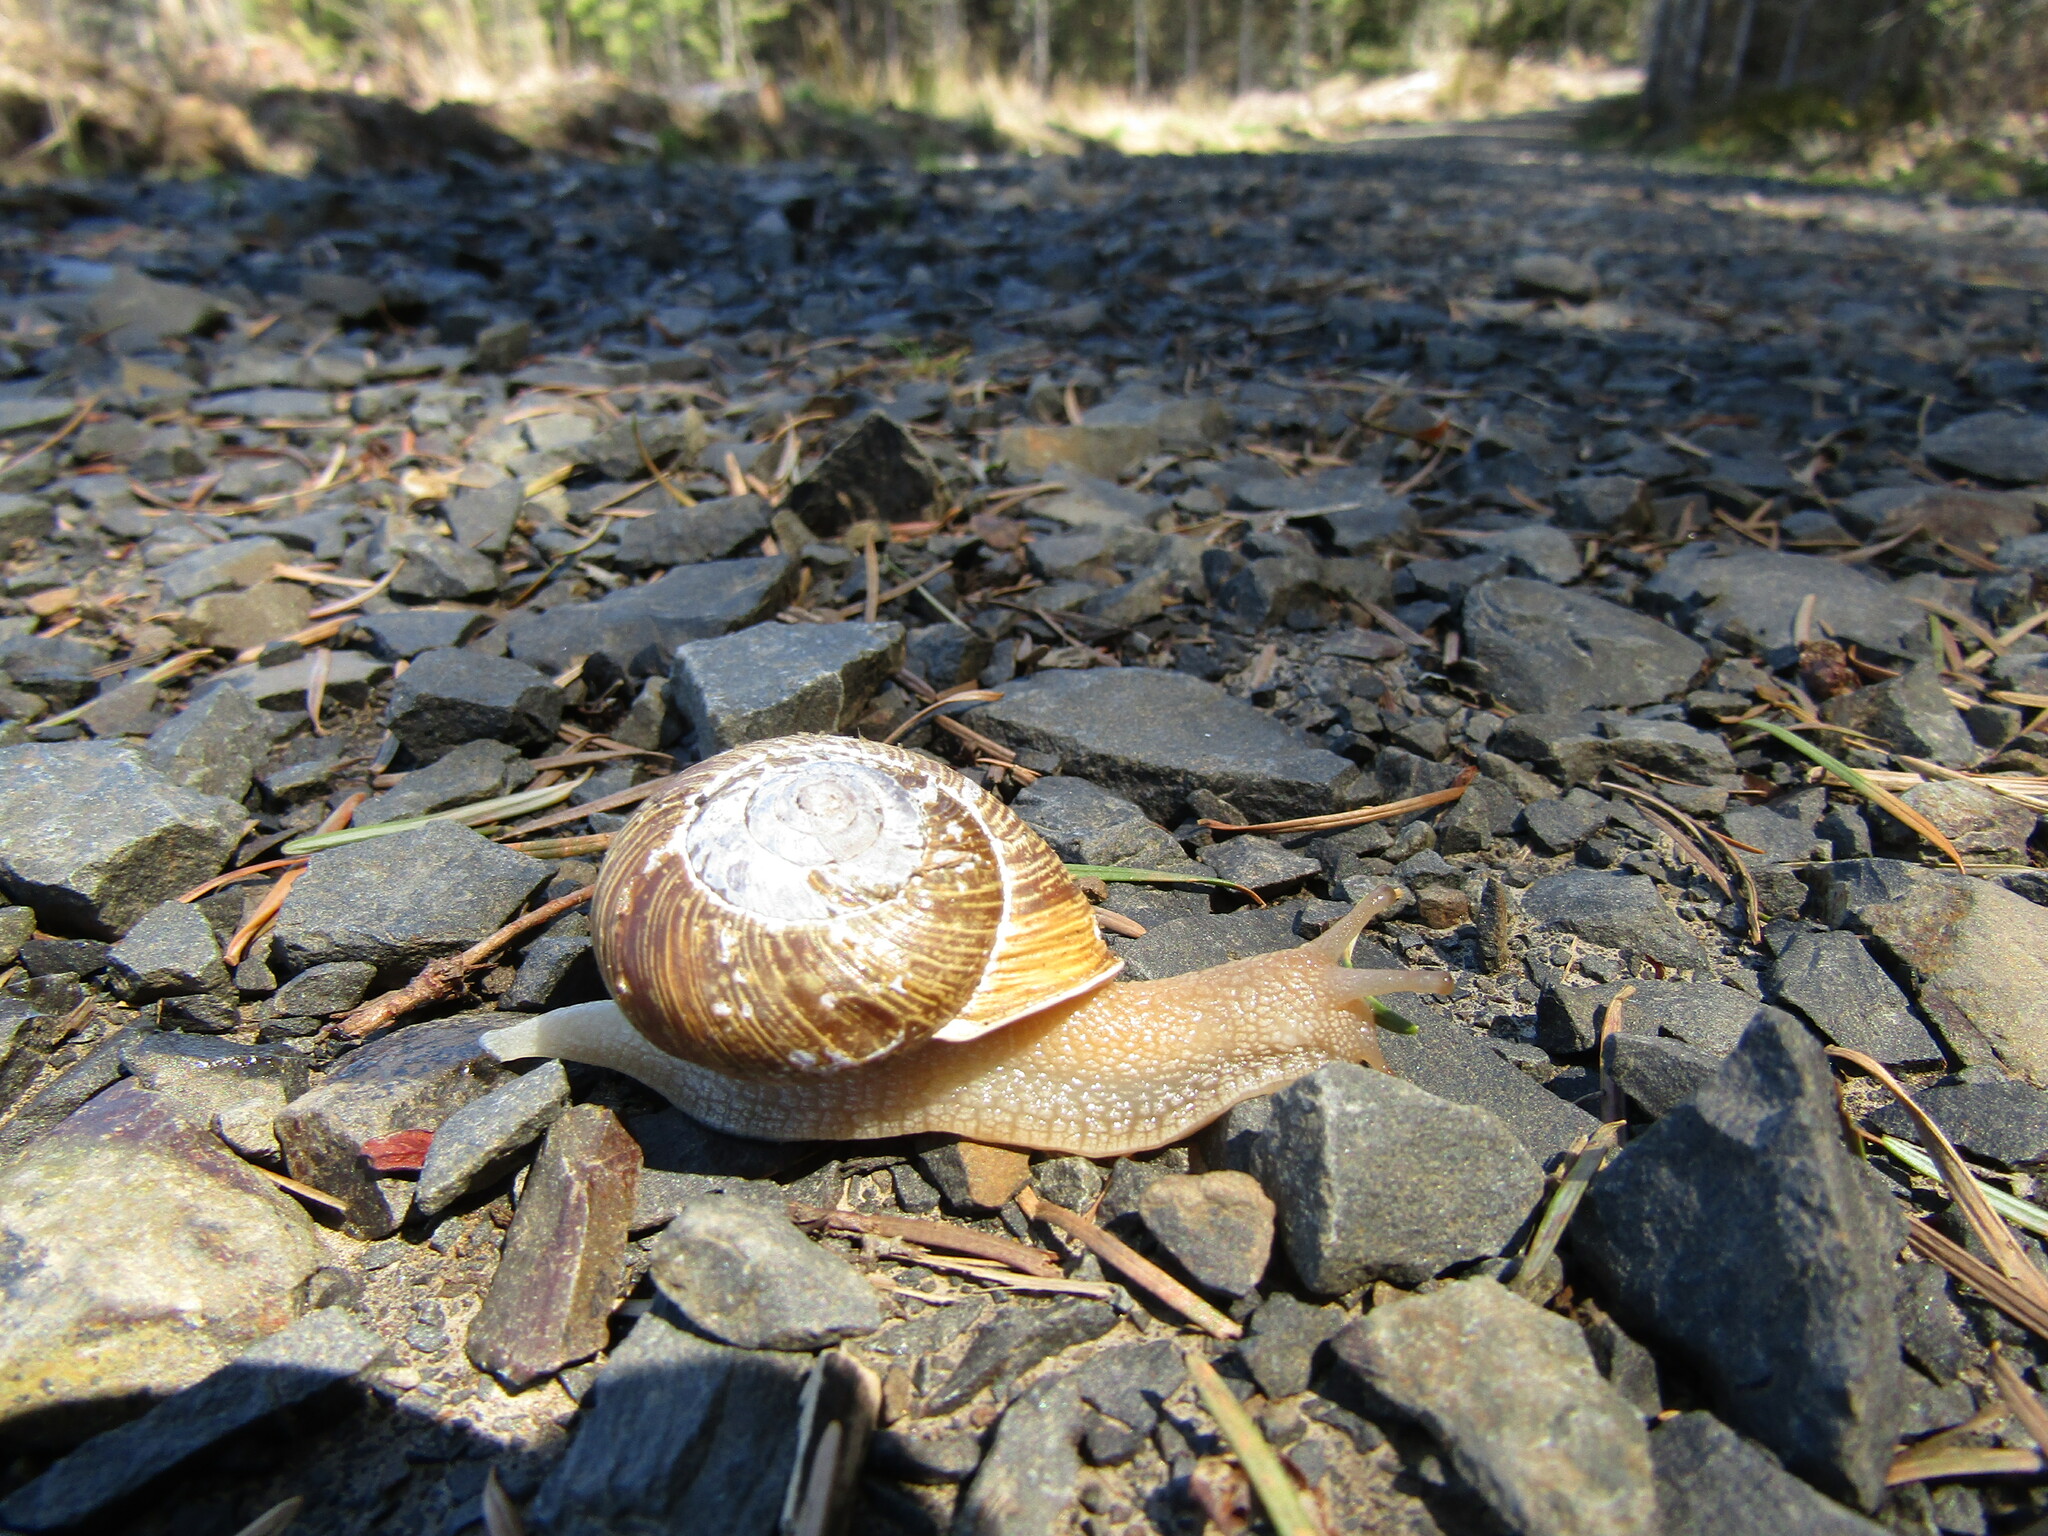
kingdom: Animalia
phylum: Mollusca
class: Gastropoda
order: Stylommatophora
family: Polygyridae
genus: Allogona
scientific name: Allogona townsendiana
